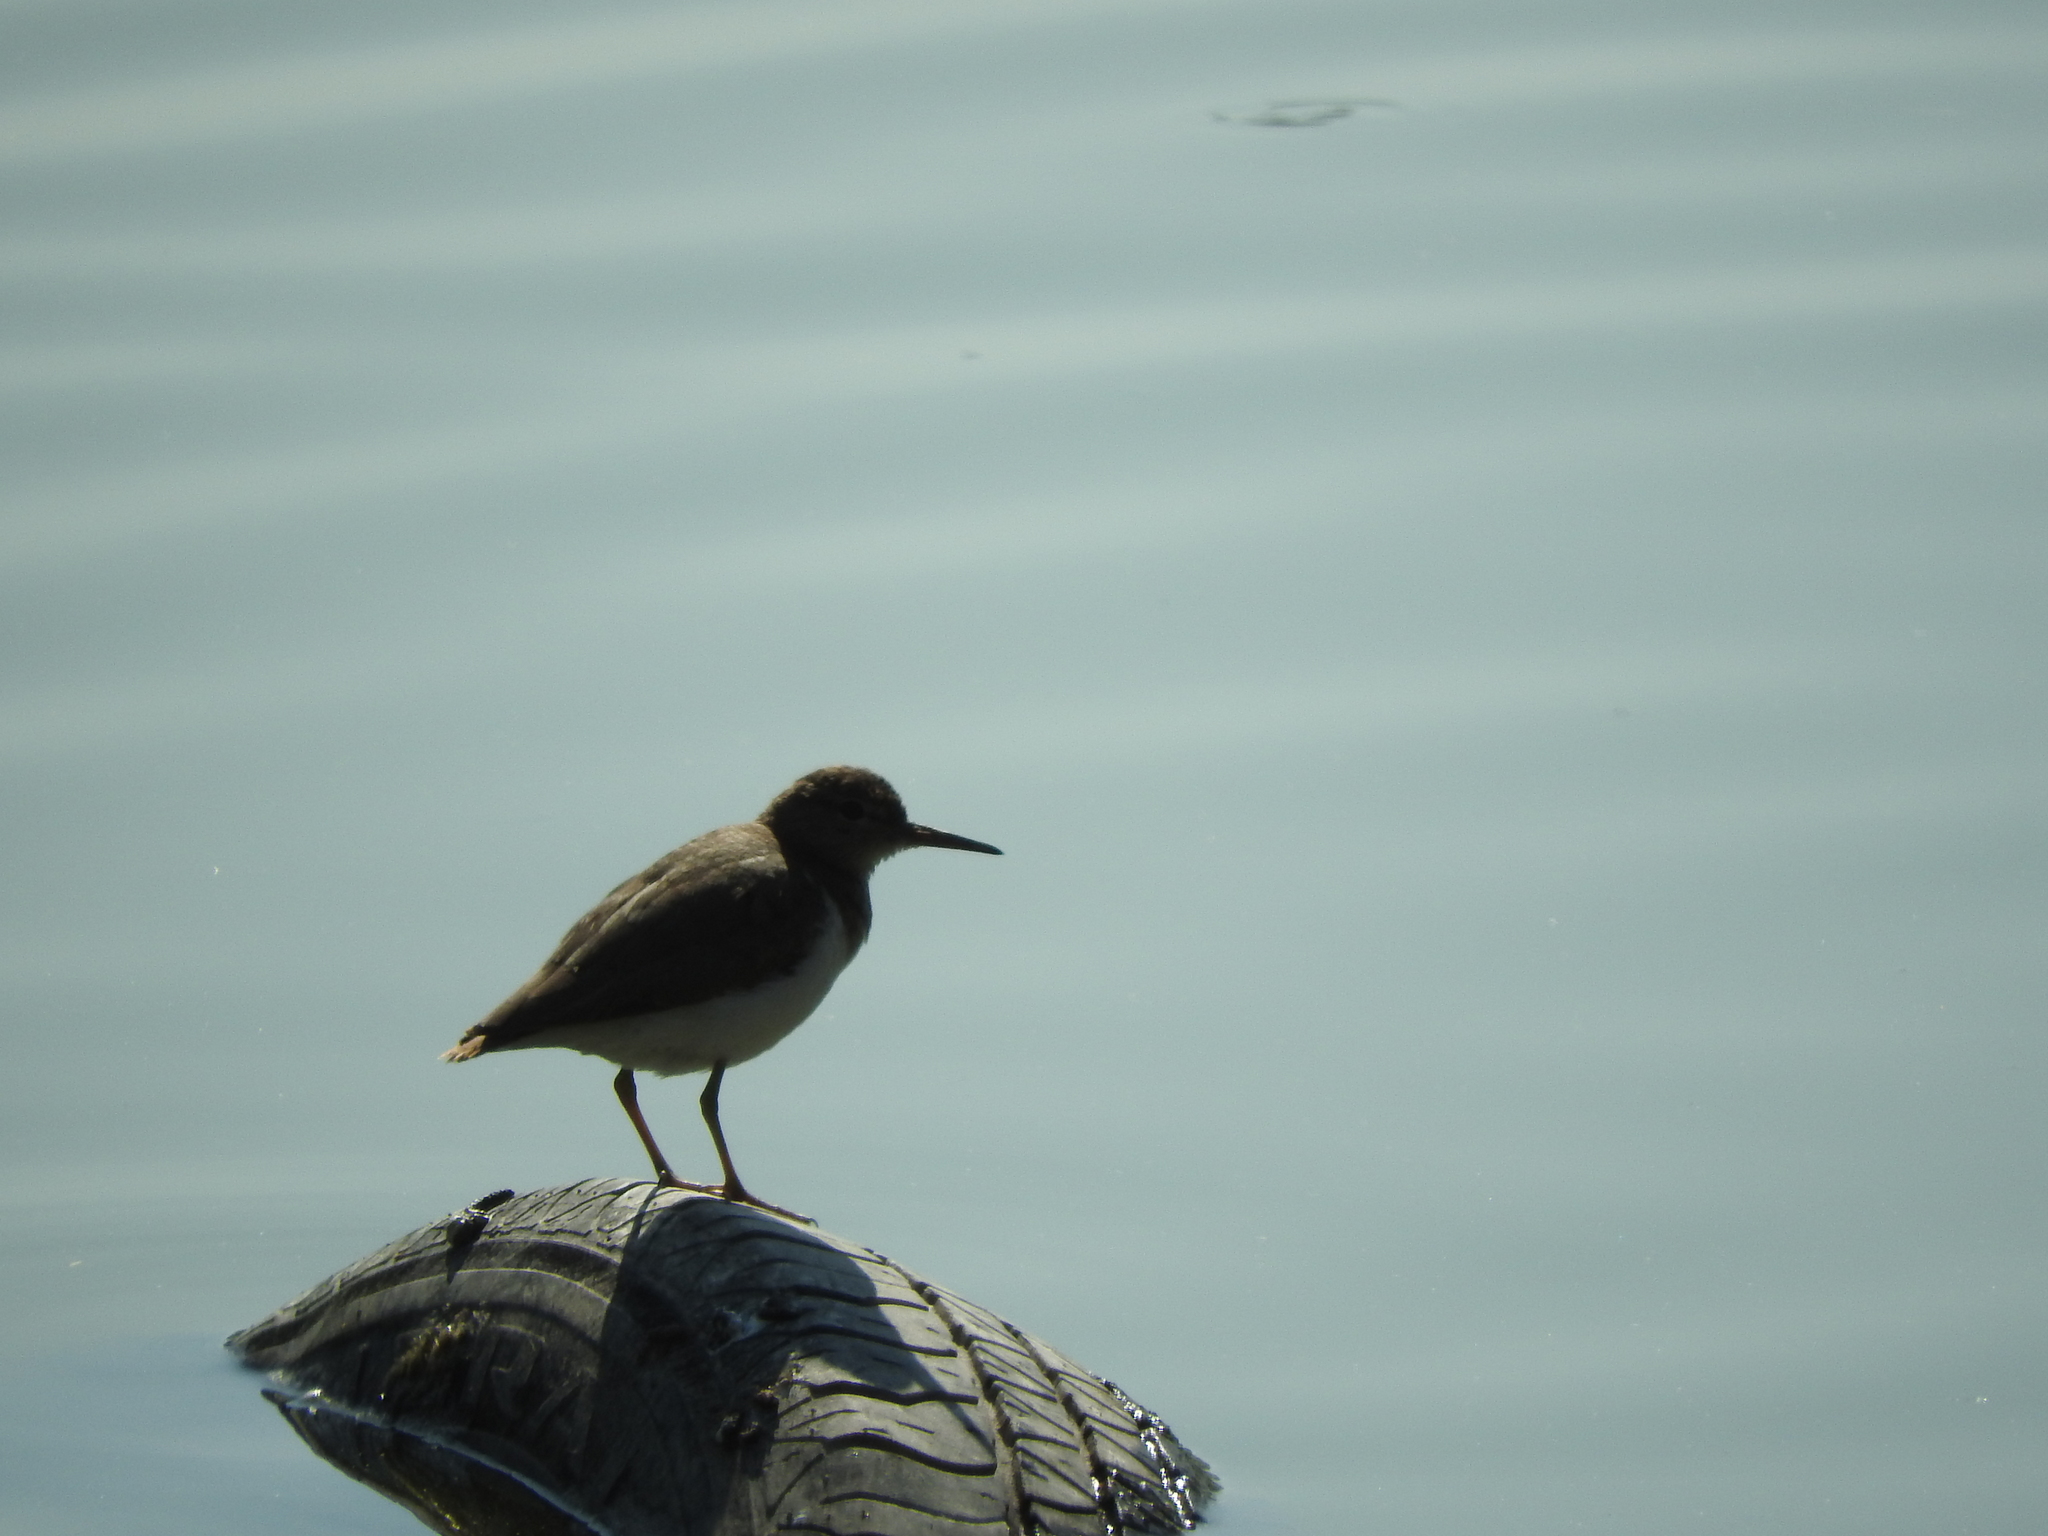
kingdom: Animalia
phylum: Chordata
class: Aves
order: Charadriiformes
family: Scolopacidae
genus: Actitis
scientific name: Actitis macularius
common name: Spotted sandpiper
